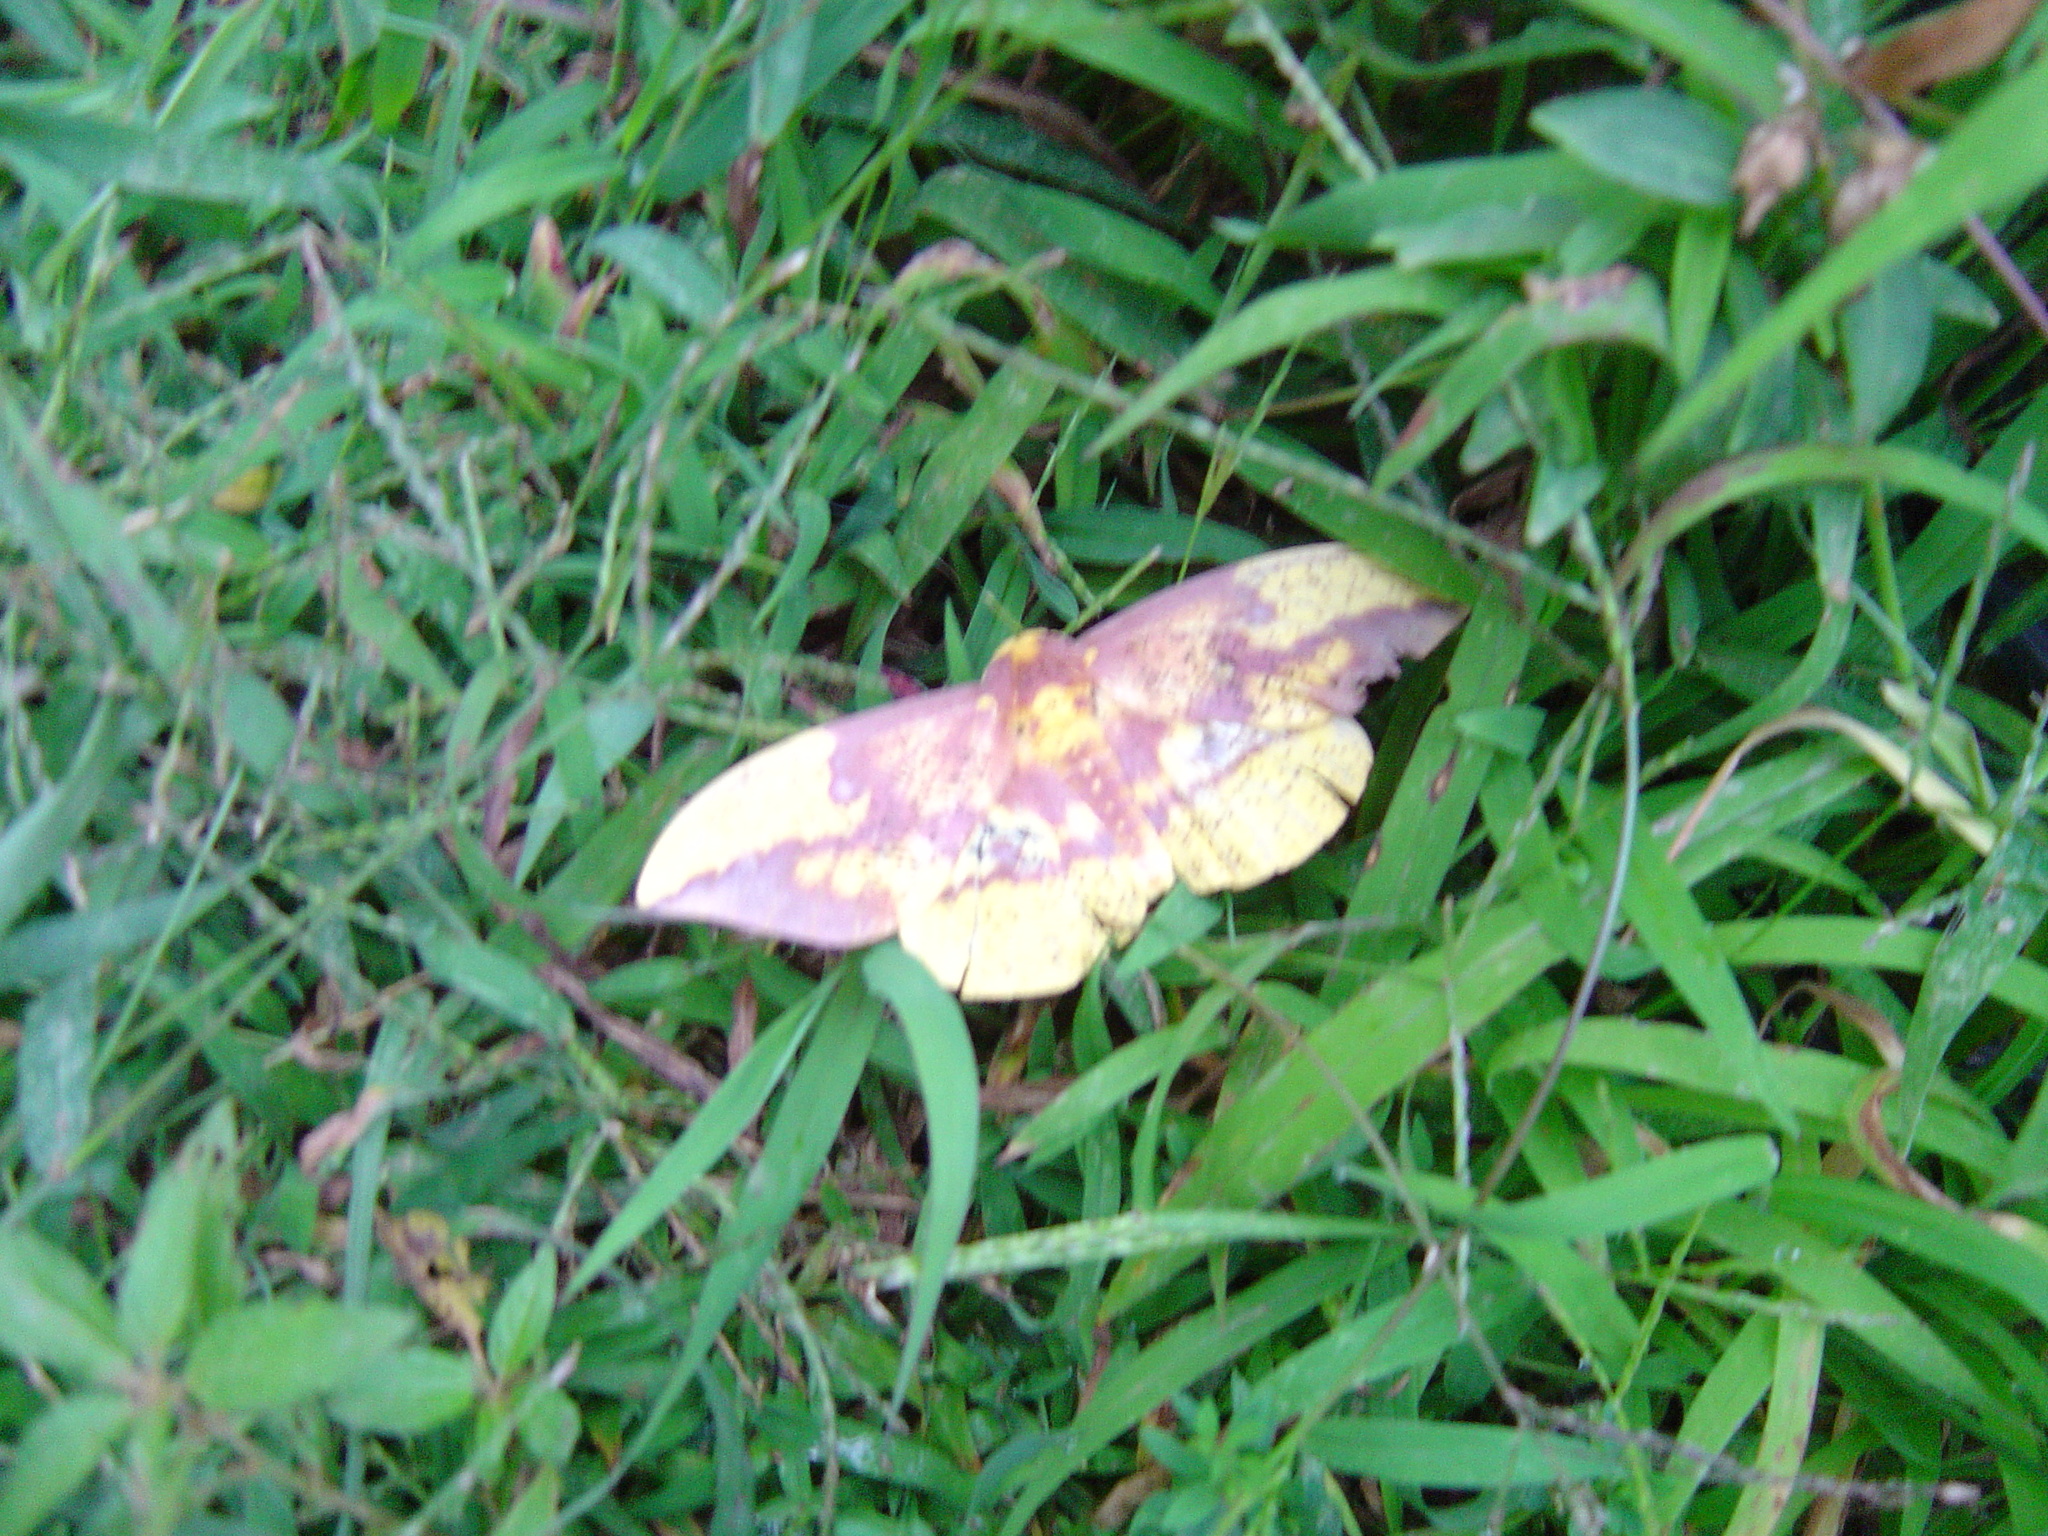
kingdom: Animalia
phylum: Arthropoda
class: Insecta
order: Lepidoptera
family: Saturniidae
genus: Eacles
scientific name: Eacles imperialis
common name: Imperial moth
